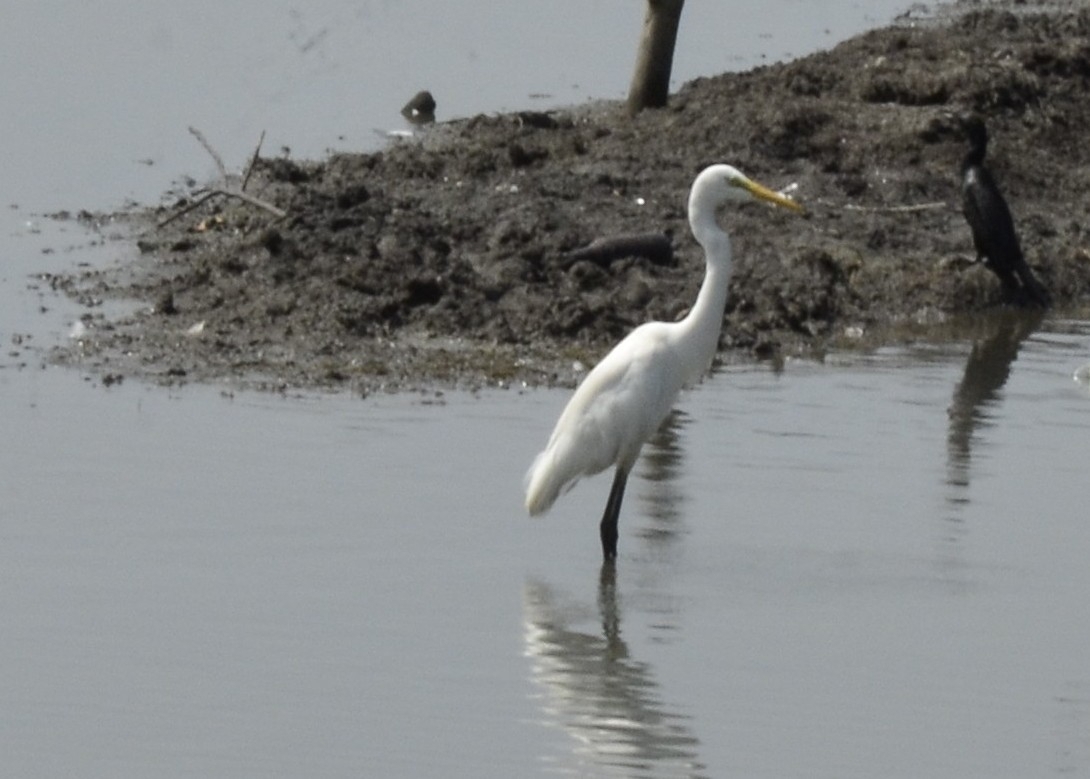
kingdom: Animalia
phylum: Chordata
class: Aves
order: Pelecaniformes
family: Ardeidae
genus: Egretta
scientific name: Egretta intermedia
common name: Intermediate egret
